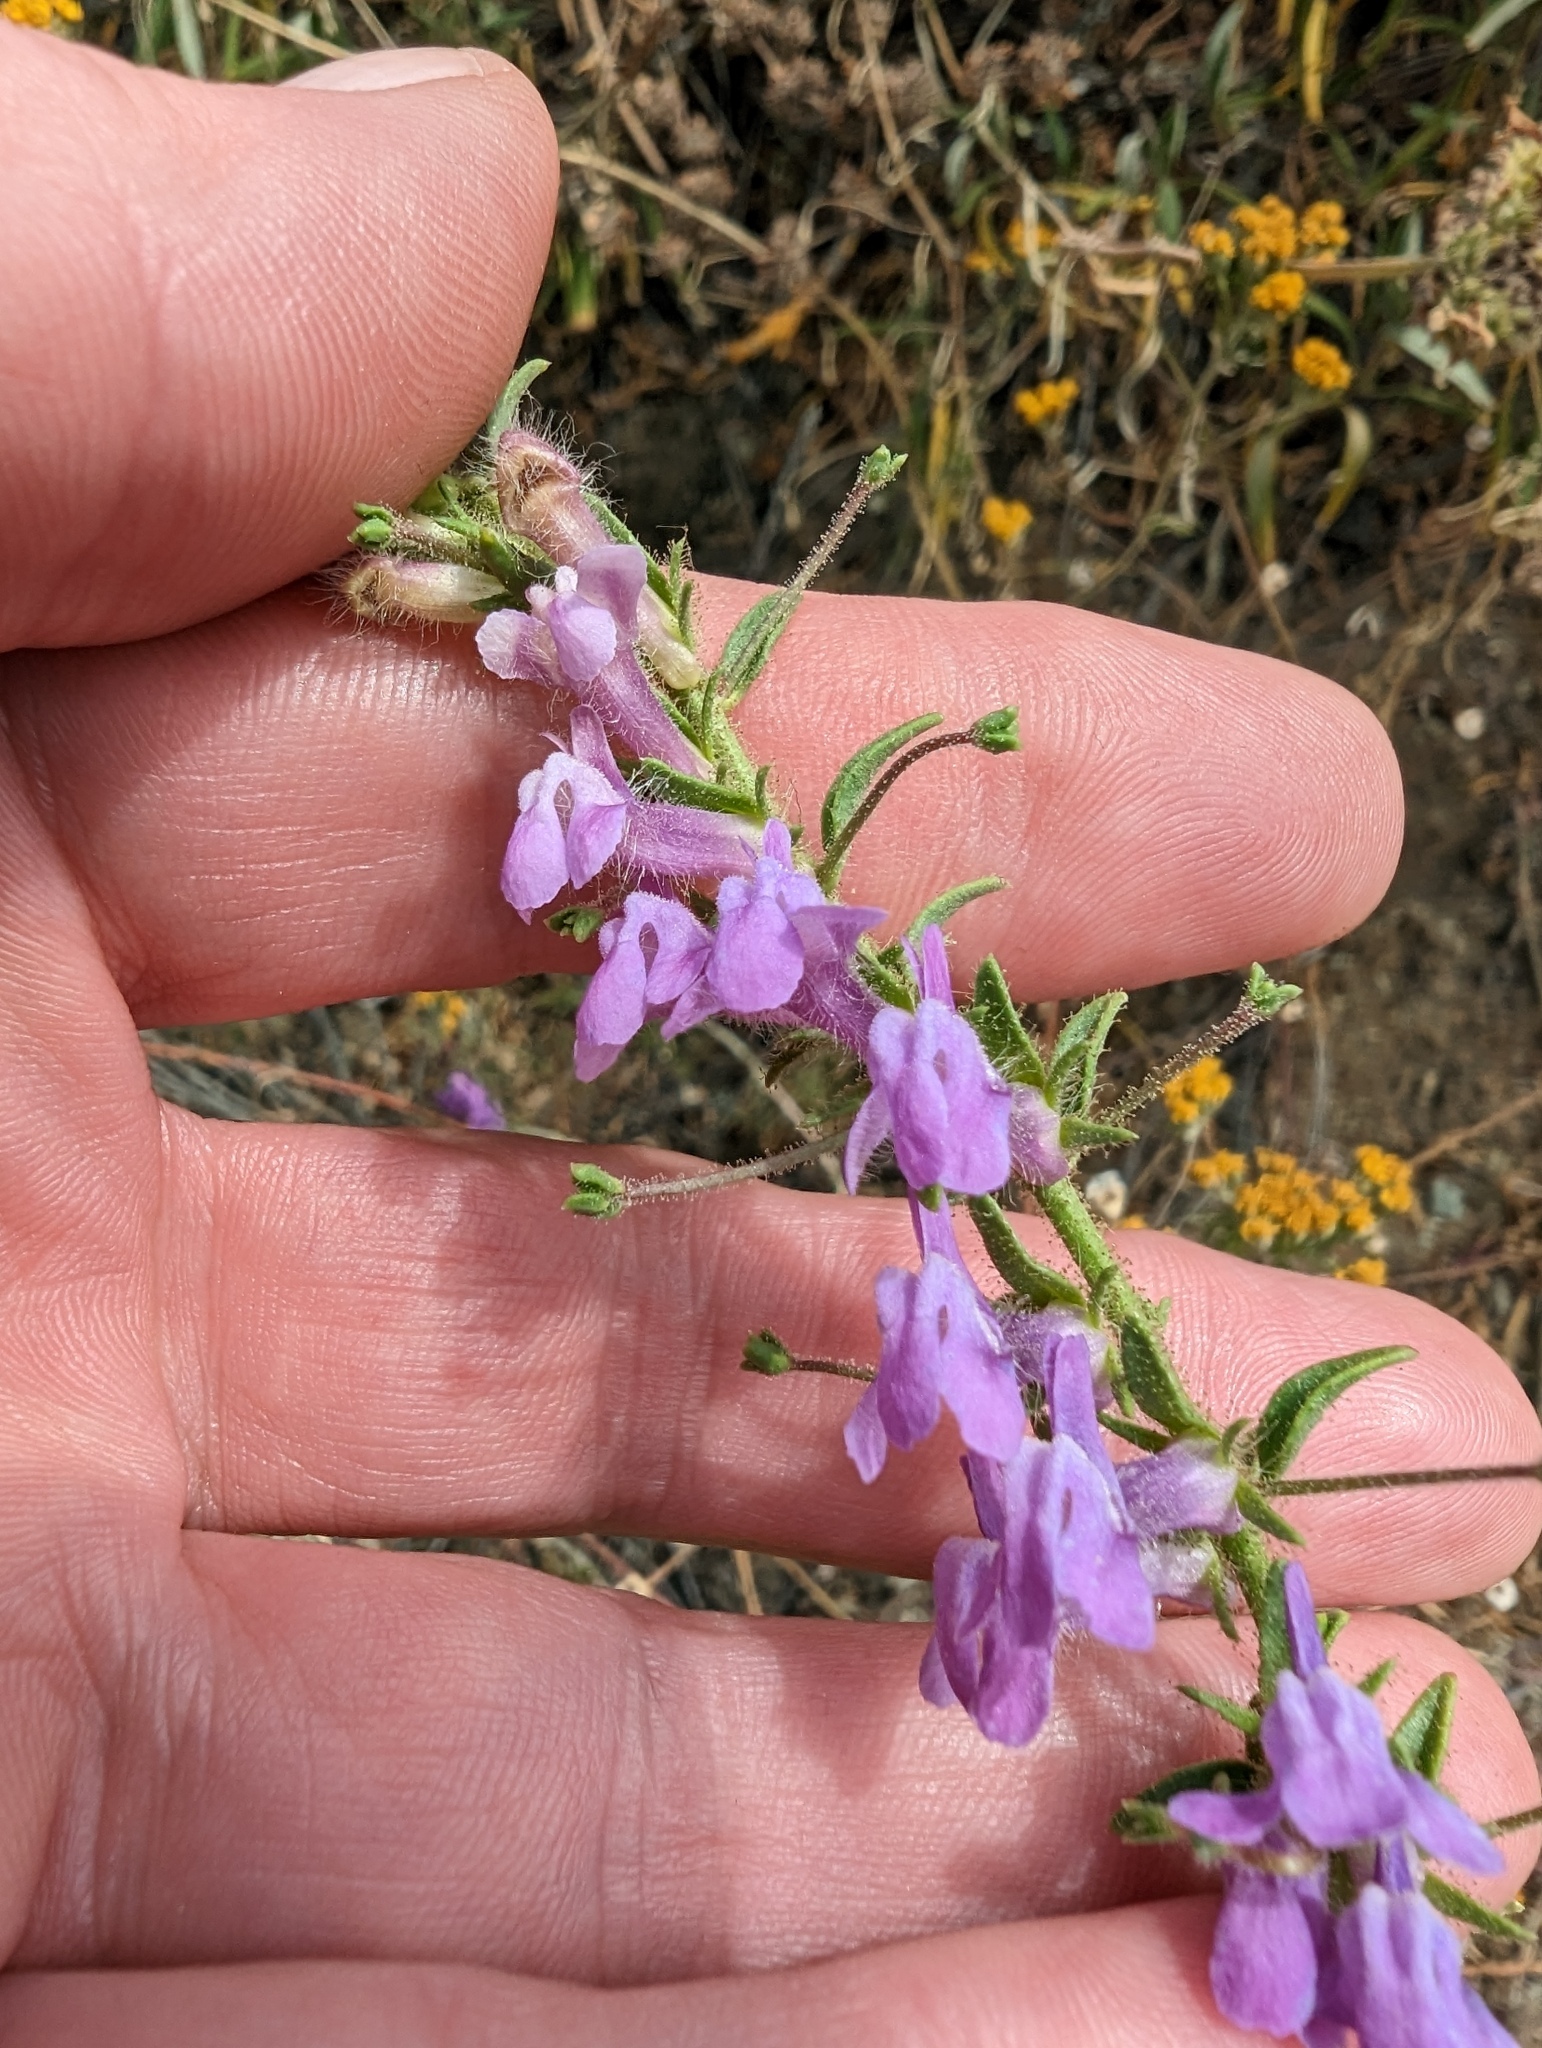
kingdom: Plantae
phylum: Tracheophyta
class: Magnoliopsida
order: Lamiales
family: Plantaginaceae
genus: Sairocarpus
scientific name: Sairocarpus vexillocalyculatus
